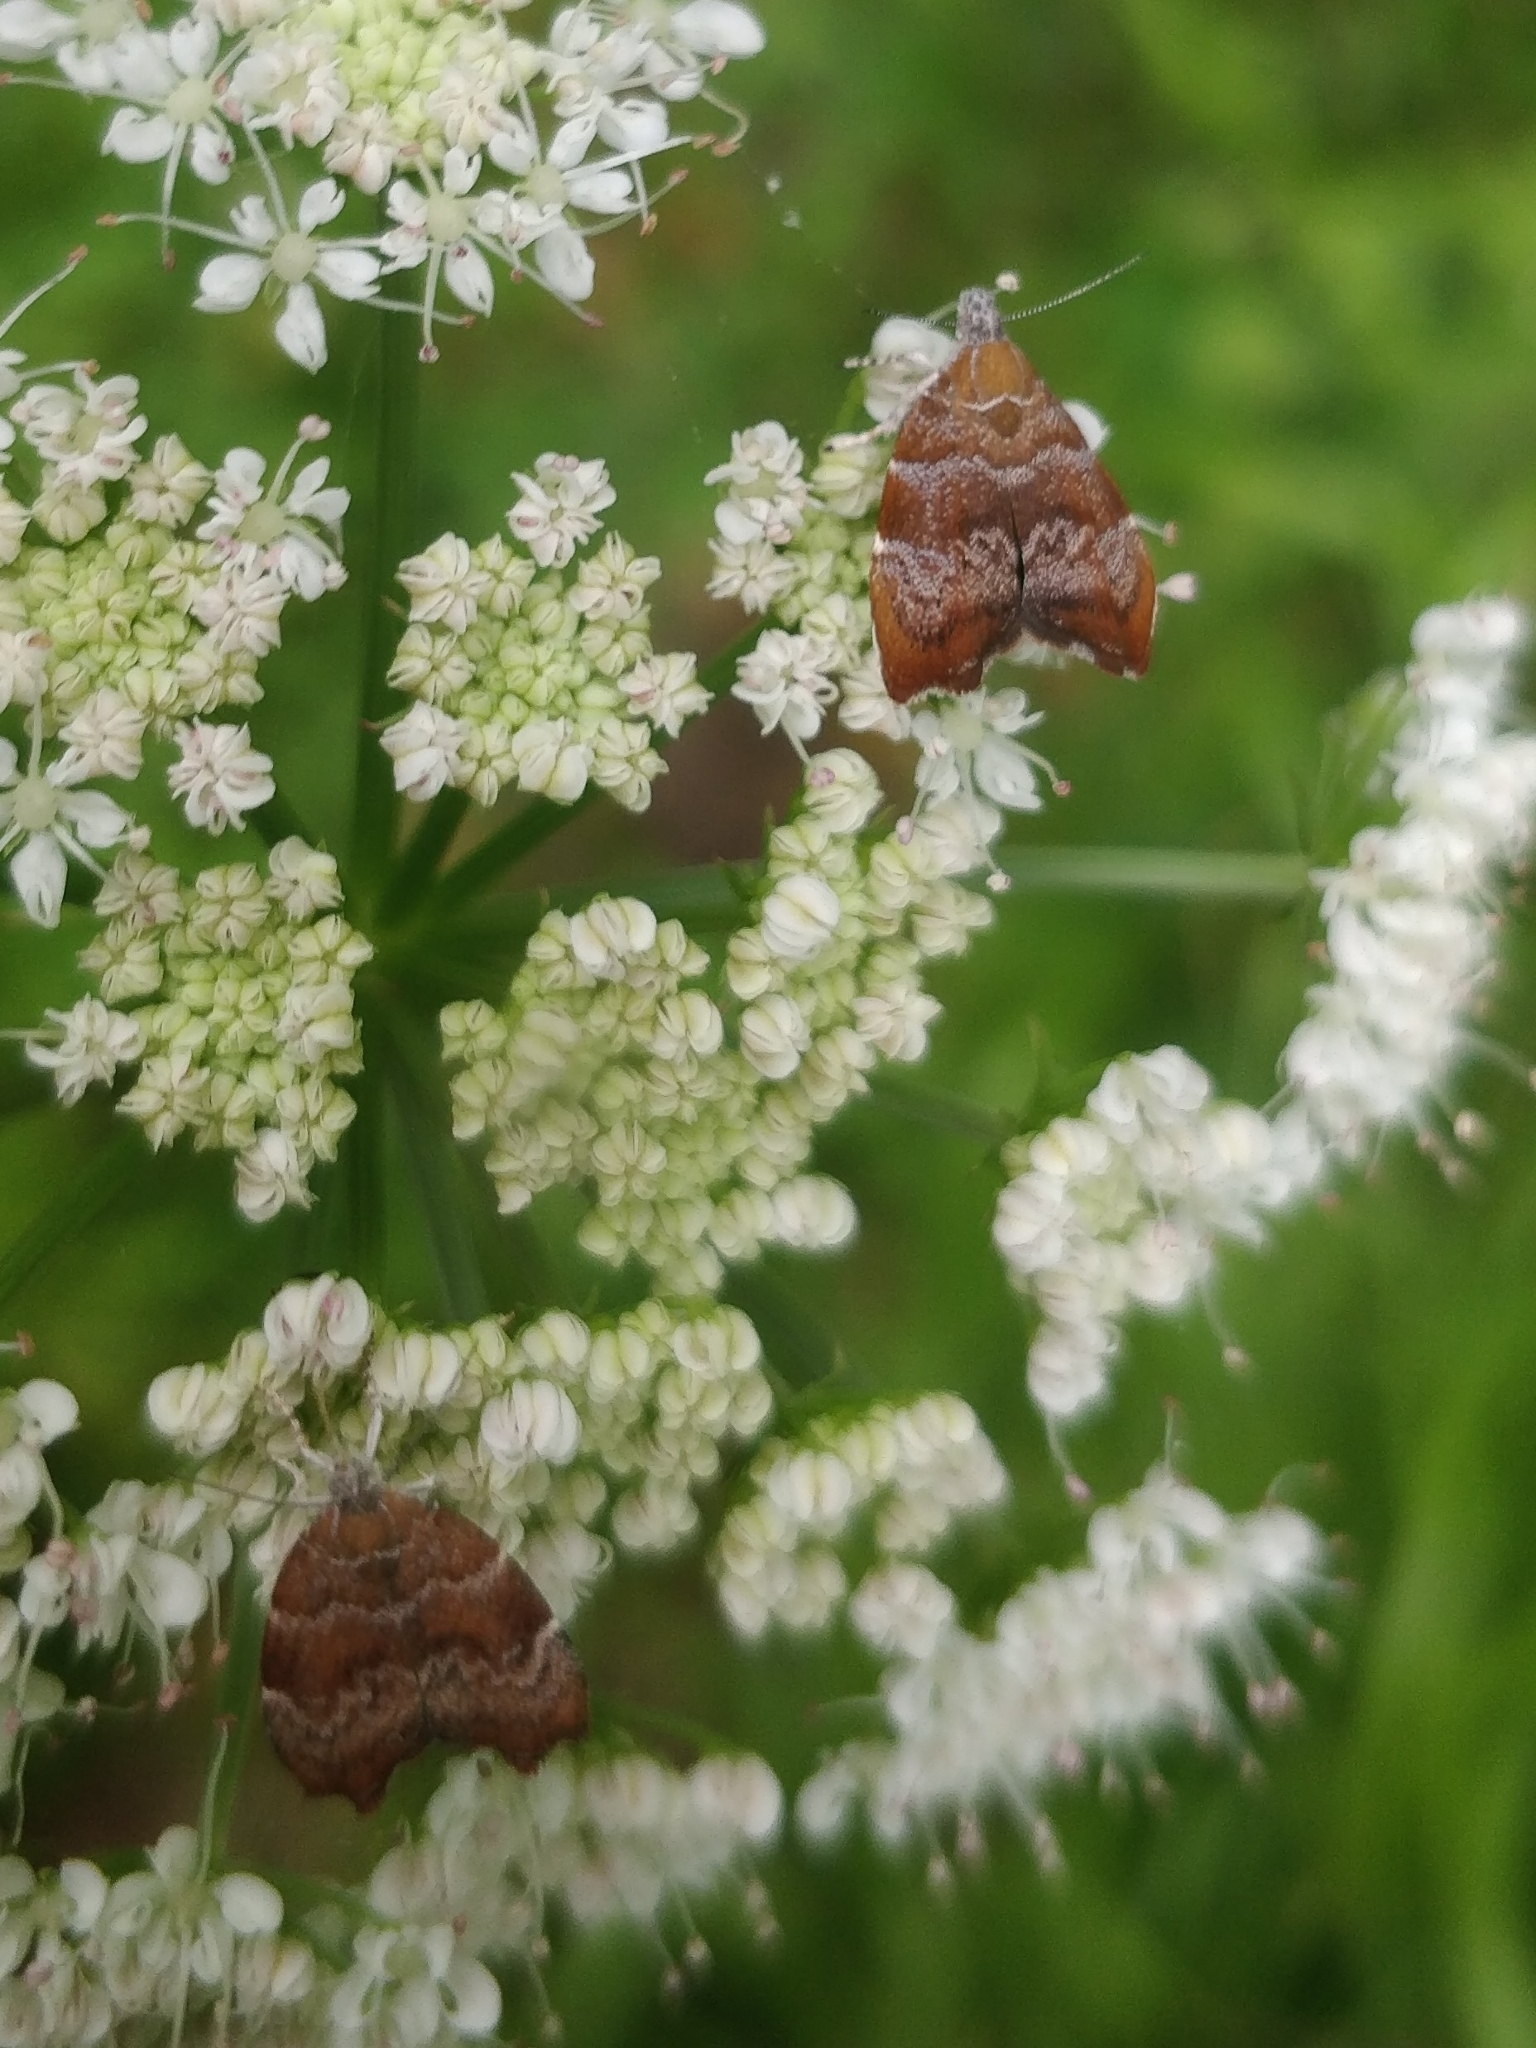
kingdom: Animalia
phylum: Arthropoda
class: Insecta
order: Lepidoptera
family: Choreutidae
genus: Anthophila
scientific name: Anthophila nemorana
